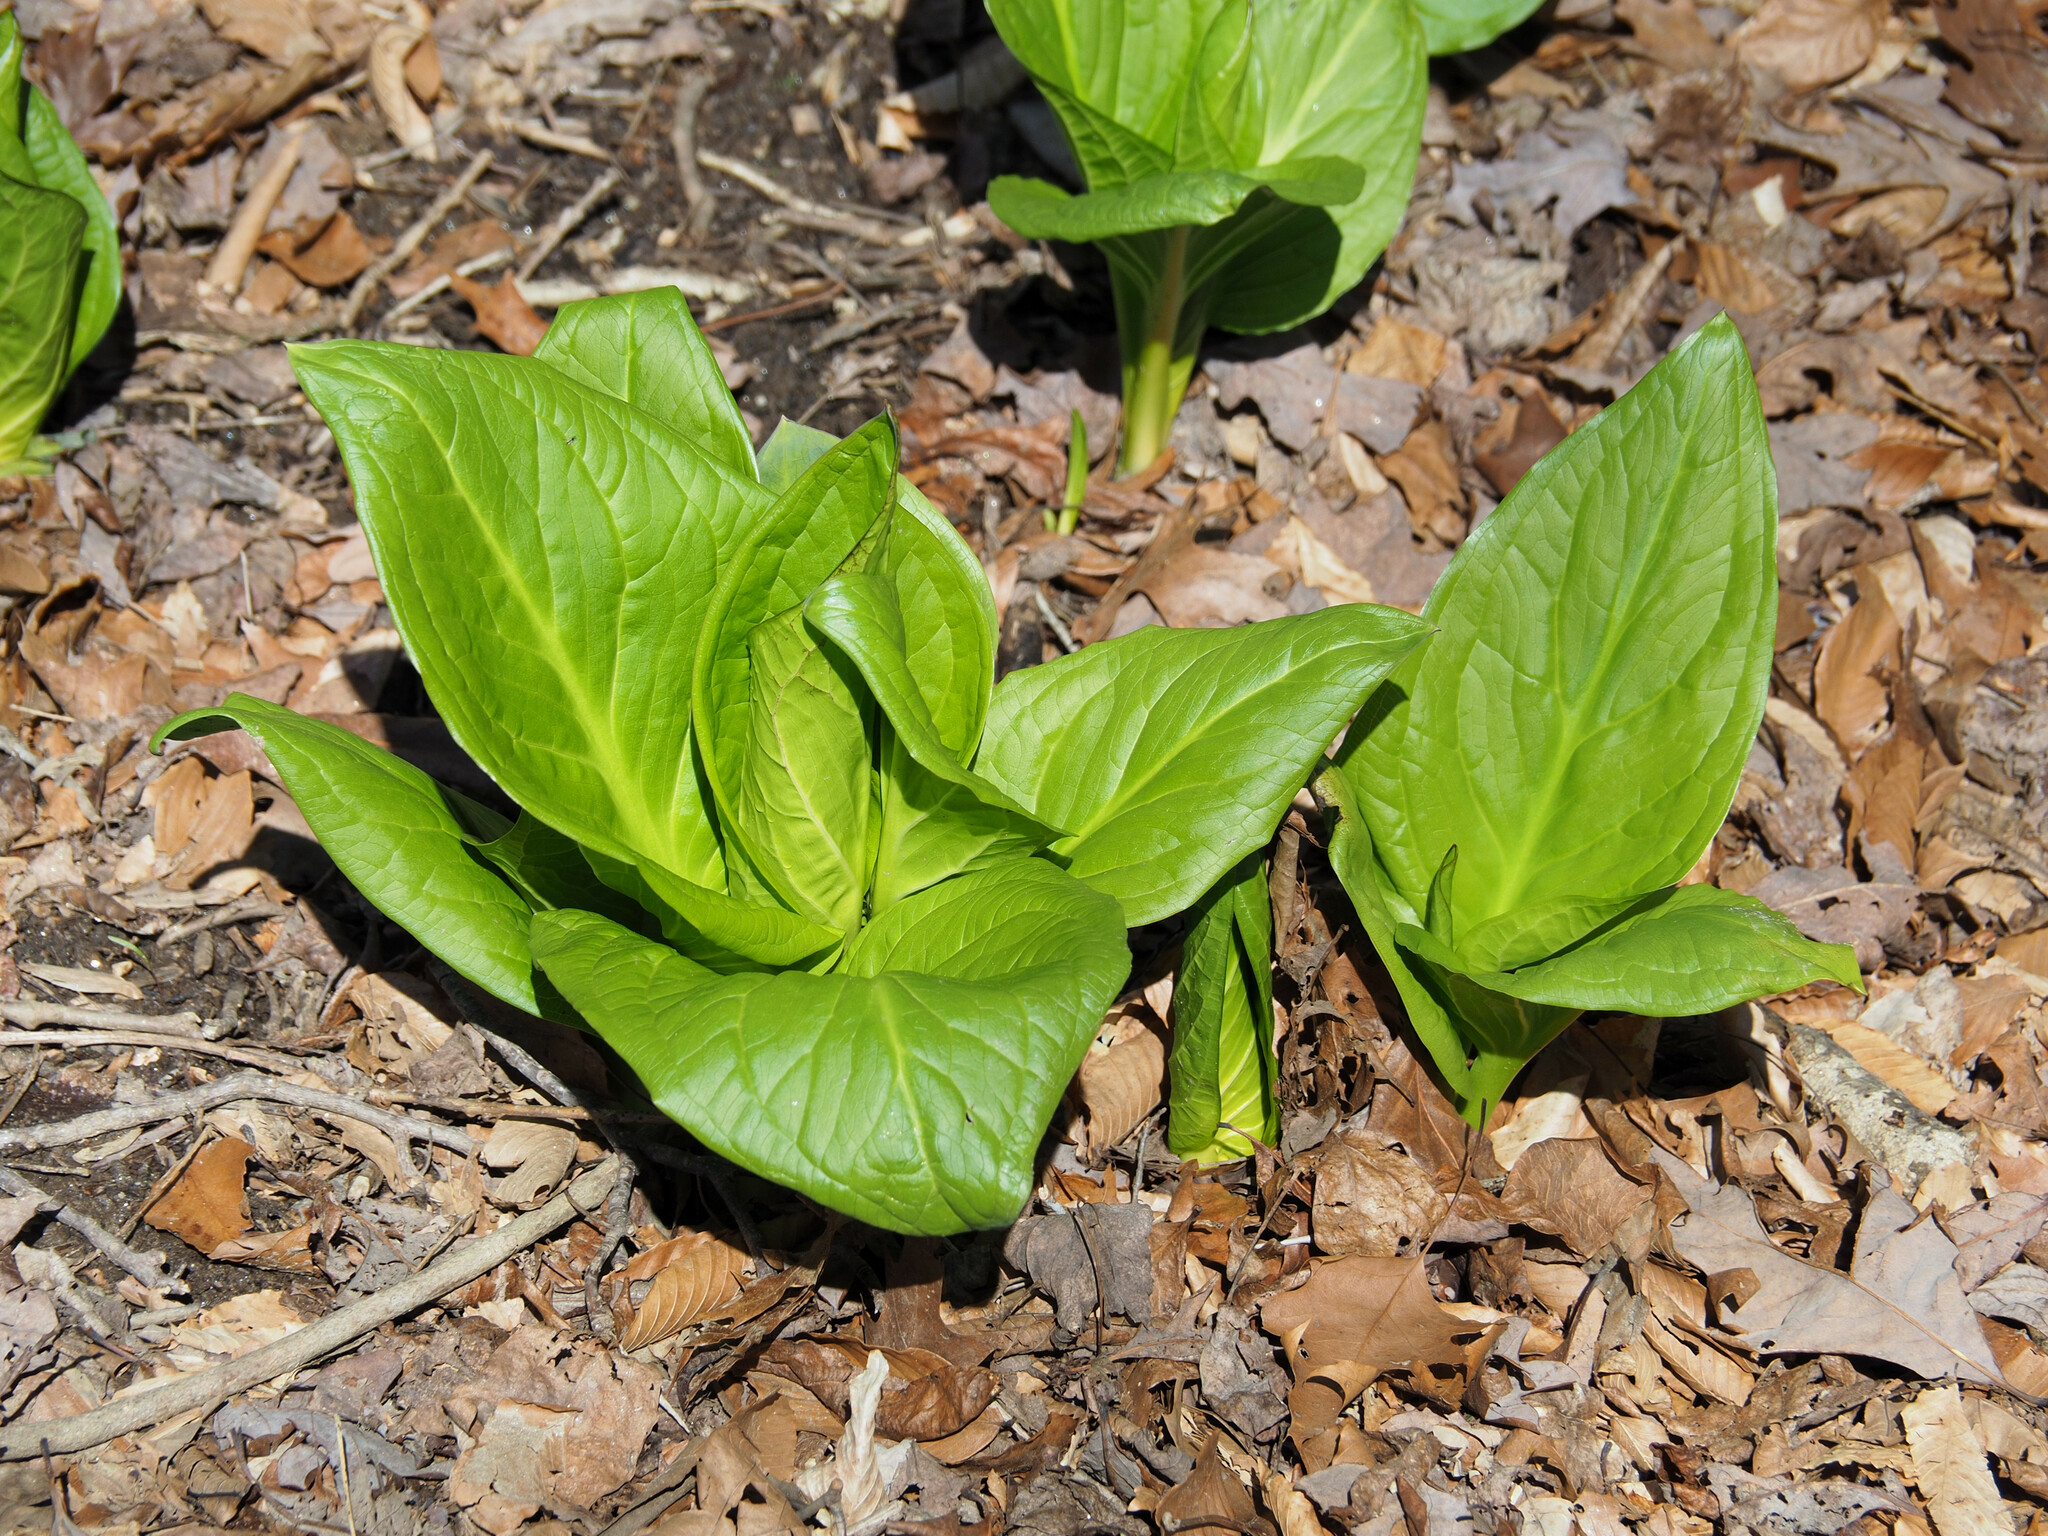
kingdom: Plantae
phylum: Tracheophyta
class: Liliopsida
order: Alismatales
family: Araceae
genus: Symplocarpus
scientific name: Symplocarpus foetidus
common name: Eastern skunk cabbage
